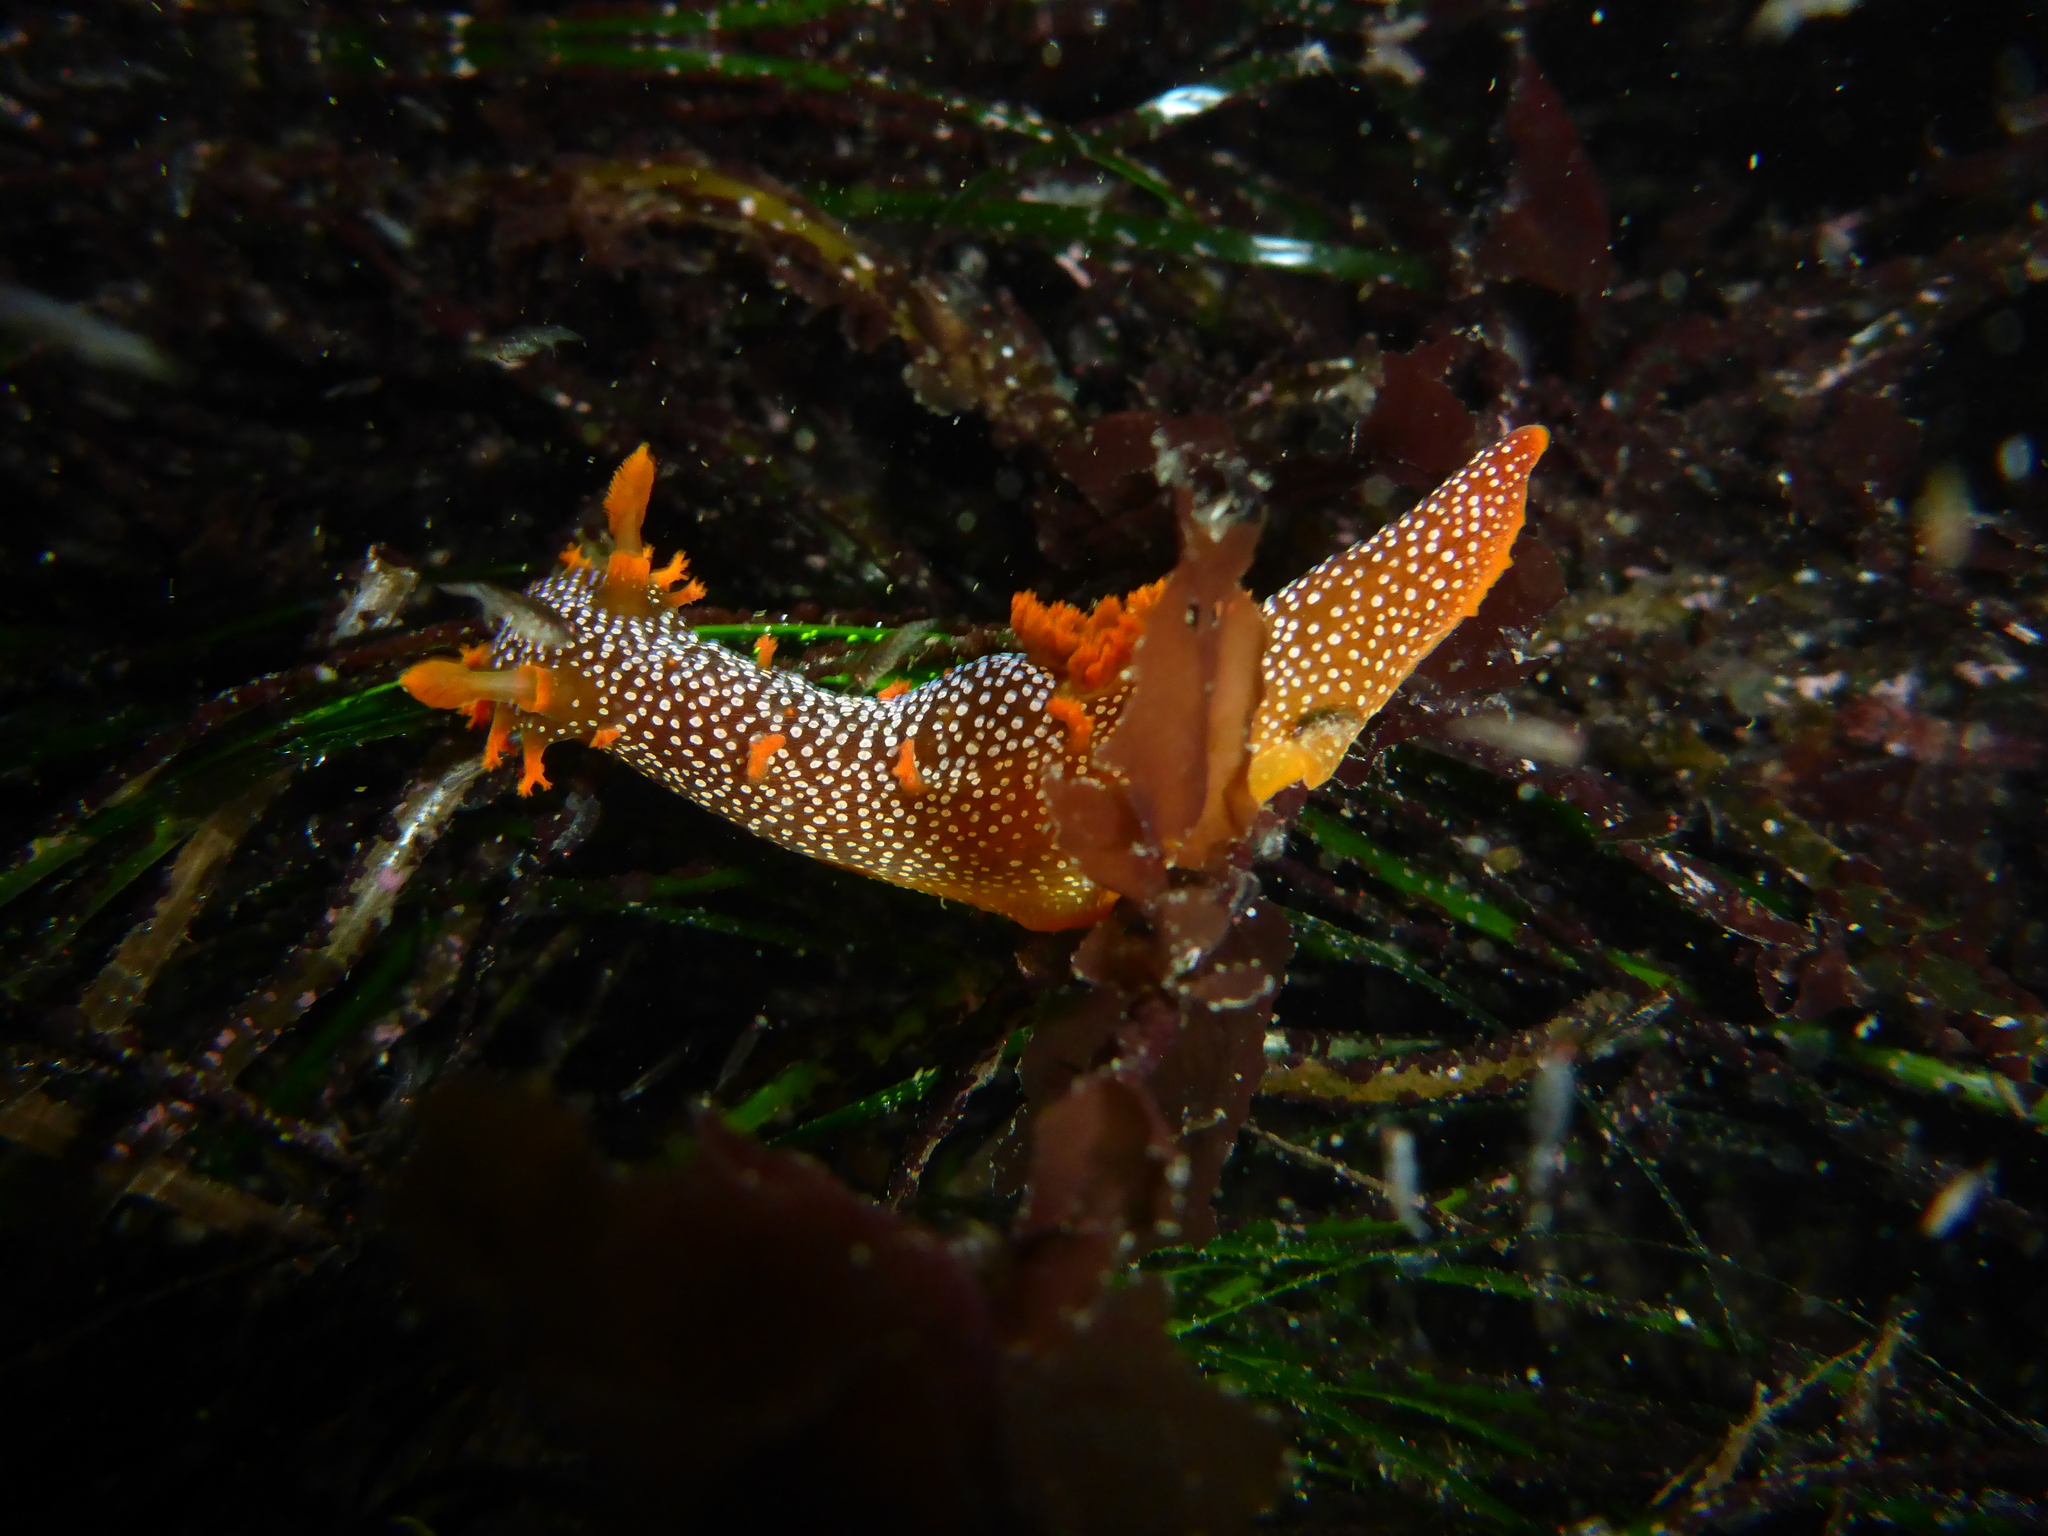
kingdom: Animalia
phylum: Mollusca
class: Gastropoda
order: Nudibranchia
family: Polyceridae
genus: Triopha
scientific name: Triopha maculata
